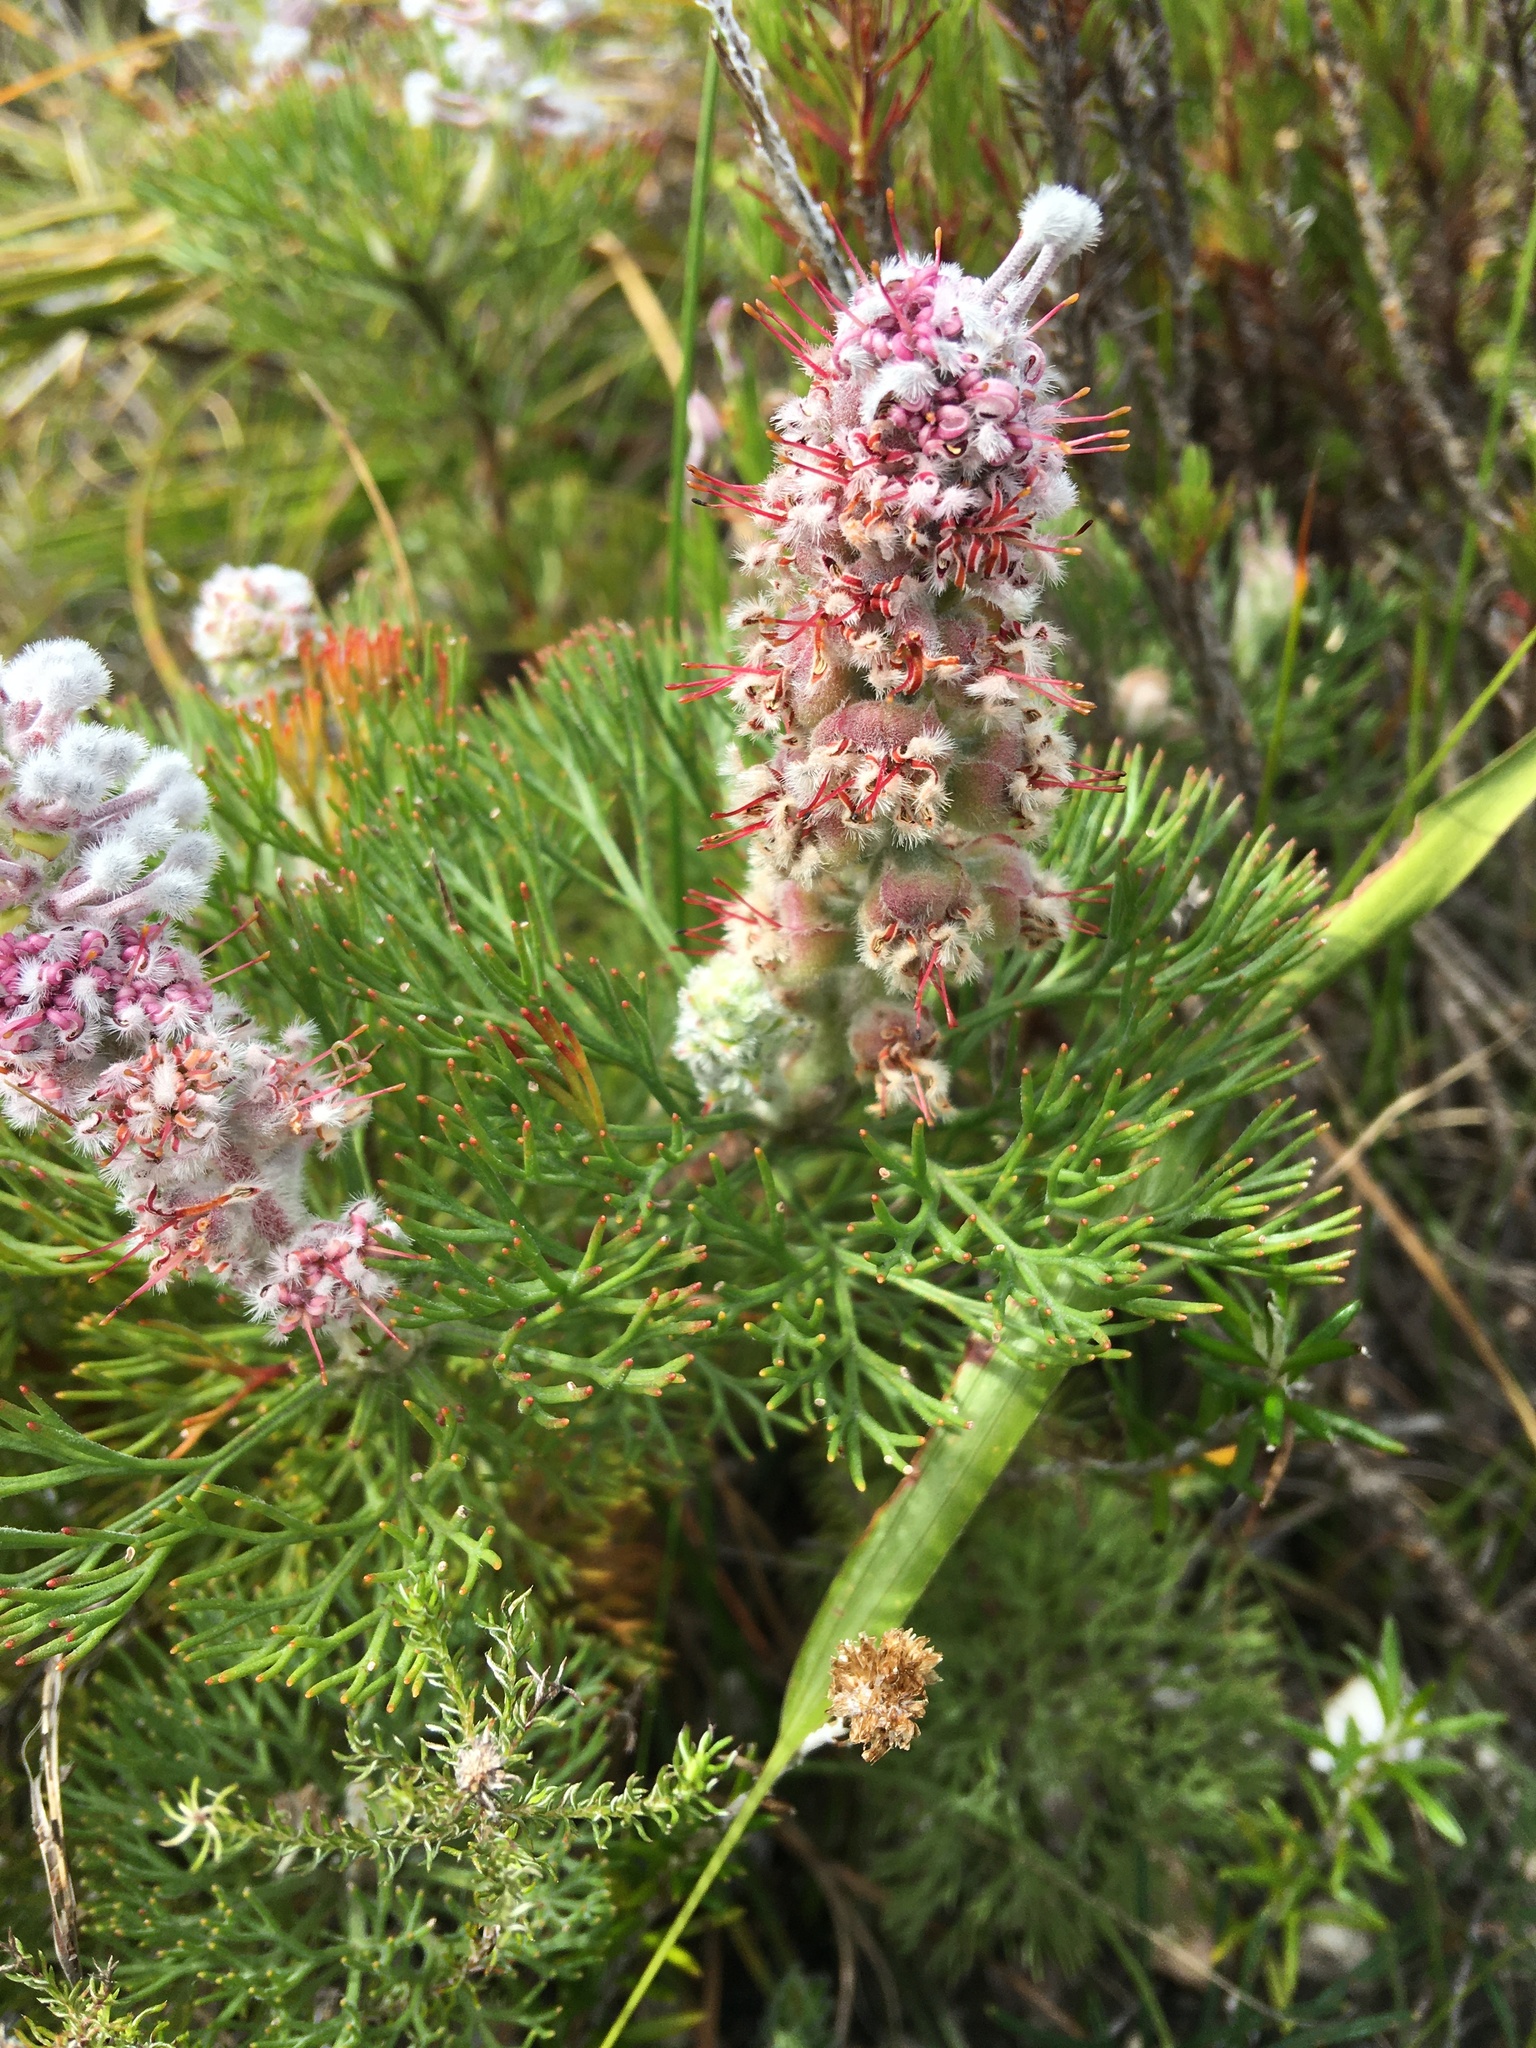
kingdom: Plantae
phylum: Tracheophyta
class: Magnoliopsida
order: Proteales
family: Proteaceae
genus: Paranomus
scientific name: Paranomus abrotanifolius
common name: Bredasdorp sceptre
